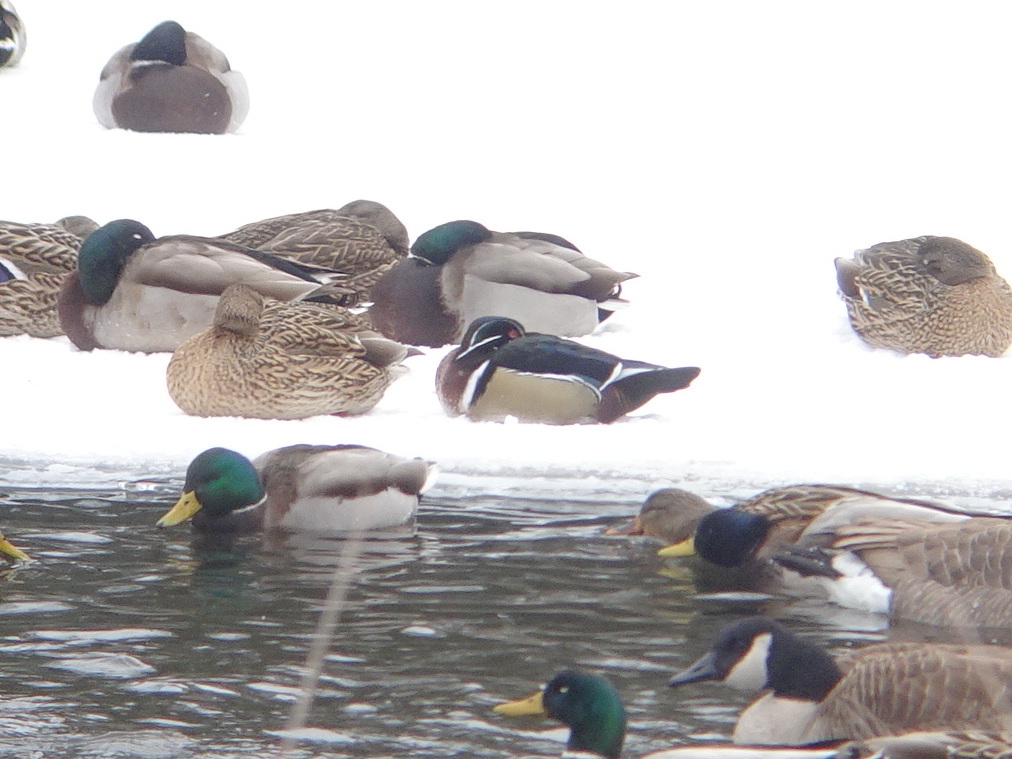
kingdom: Animalia
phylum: Chordata
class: Aves
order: Anseriformes
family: Anatidae
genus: Aix
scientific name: Aix sponsa
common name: Wood duck
